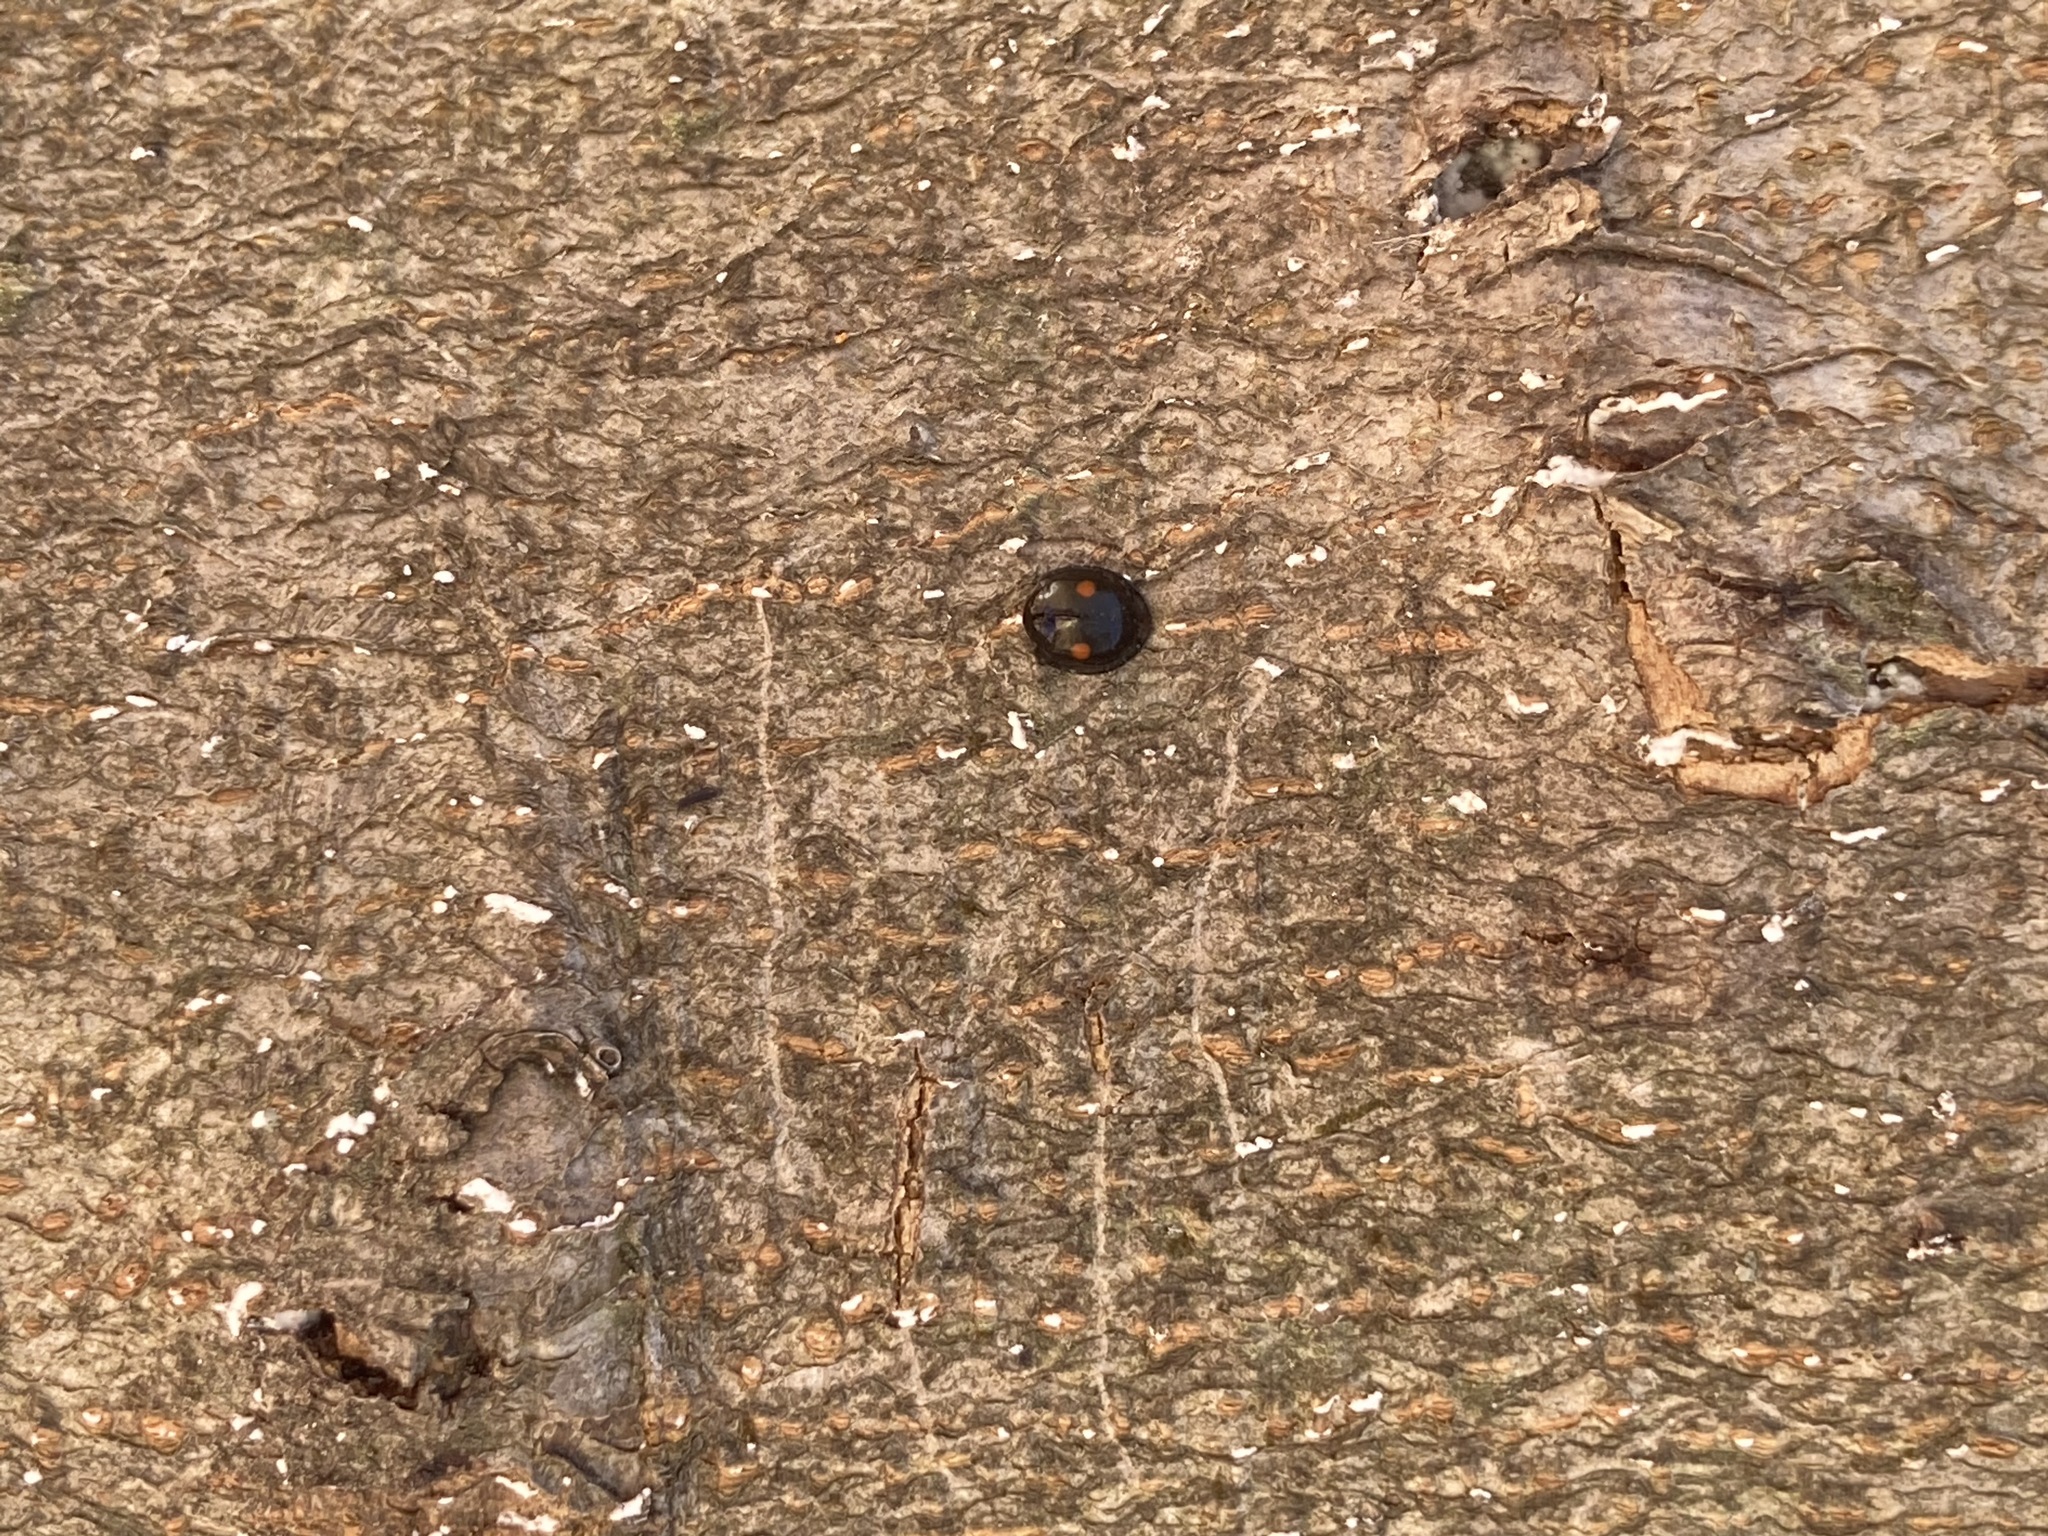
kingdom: Animalia
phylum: Arthropoda
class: Insecta
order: Coleoptera
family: Coccinellidae
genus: Chilocorus
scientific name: Chilocorus stigma
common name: Twicestabbed lady beetle
